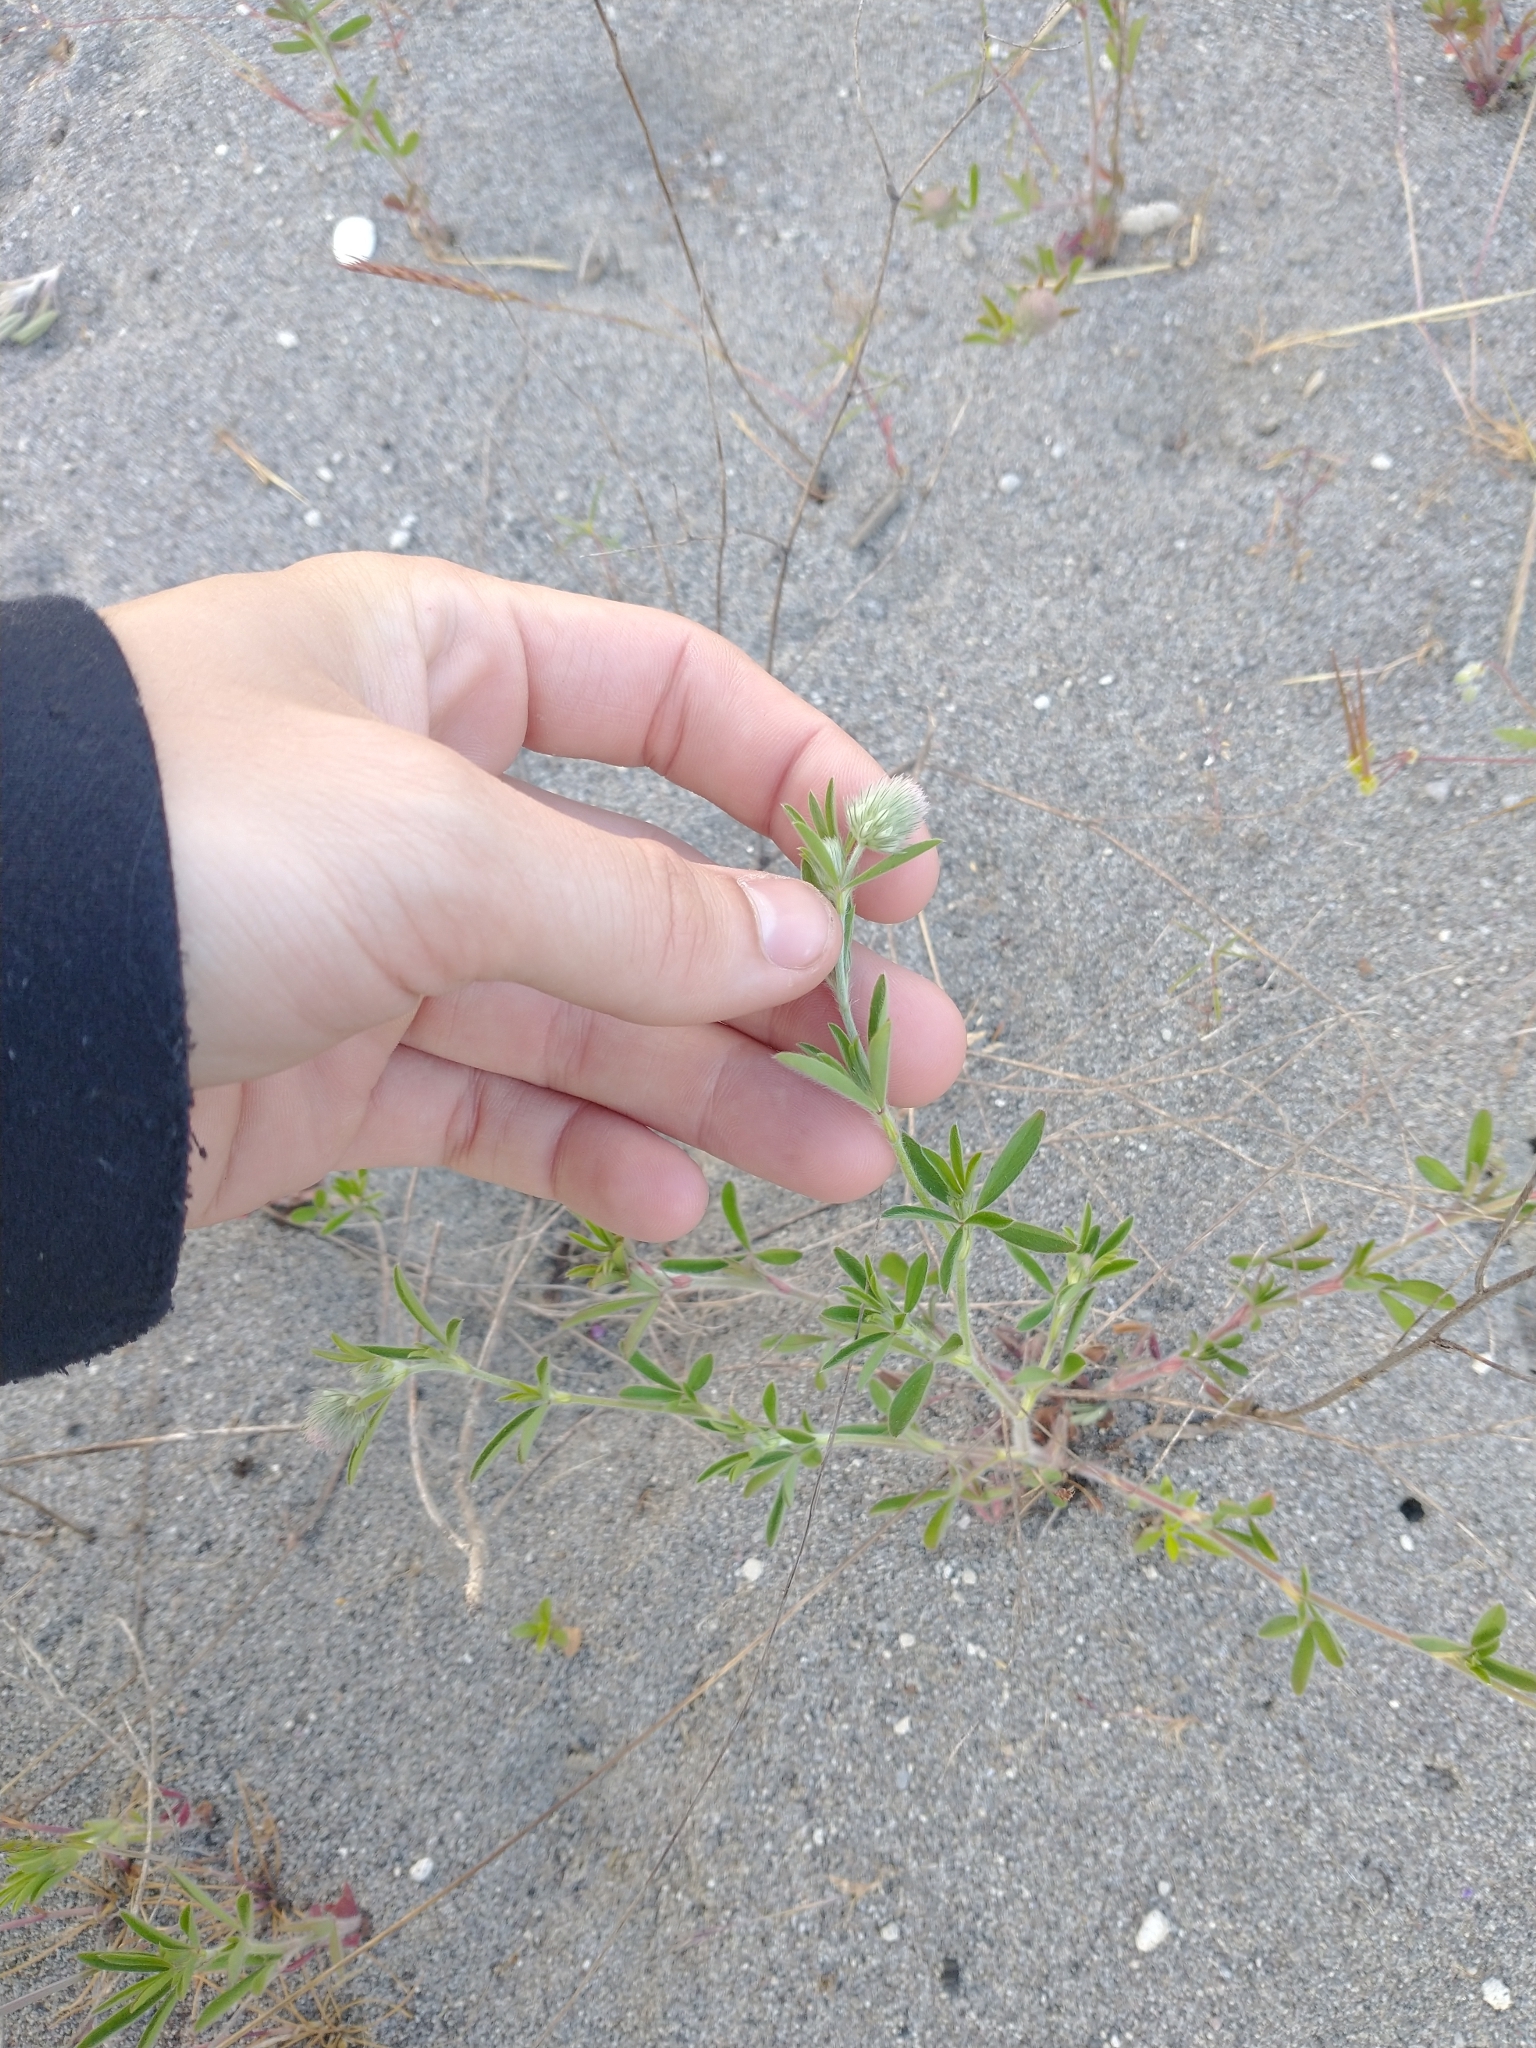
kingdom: Plantae
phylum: Tracheophyta
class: Magnoliopsida
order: Fabales
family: Fabaceae
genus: Trifolium
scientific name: Trifolium arvense
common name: Hare's-foot clover
